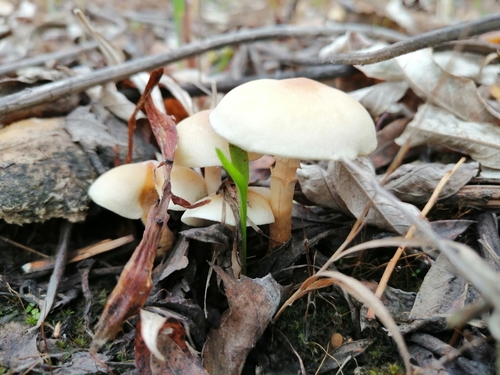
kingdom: Fungi
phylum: Basidiomycota
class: Agaricomycetes
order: Agaricales
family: Strophariaceae
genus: Hypholoma
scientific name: Hypholoma capnoides
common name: Conifer tuft
